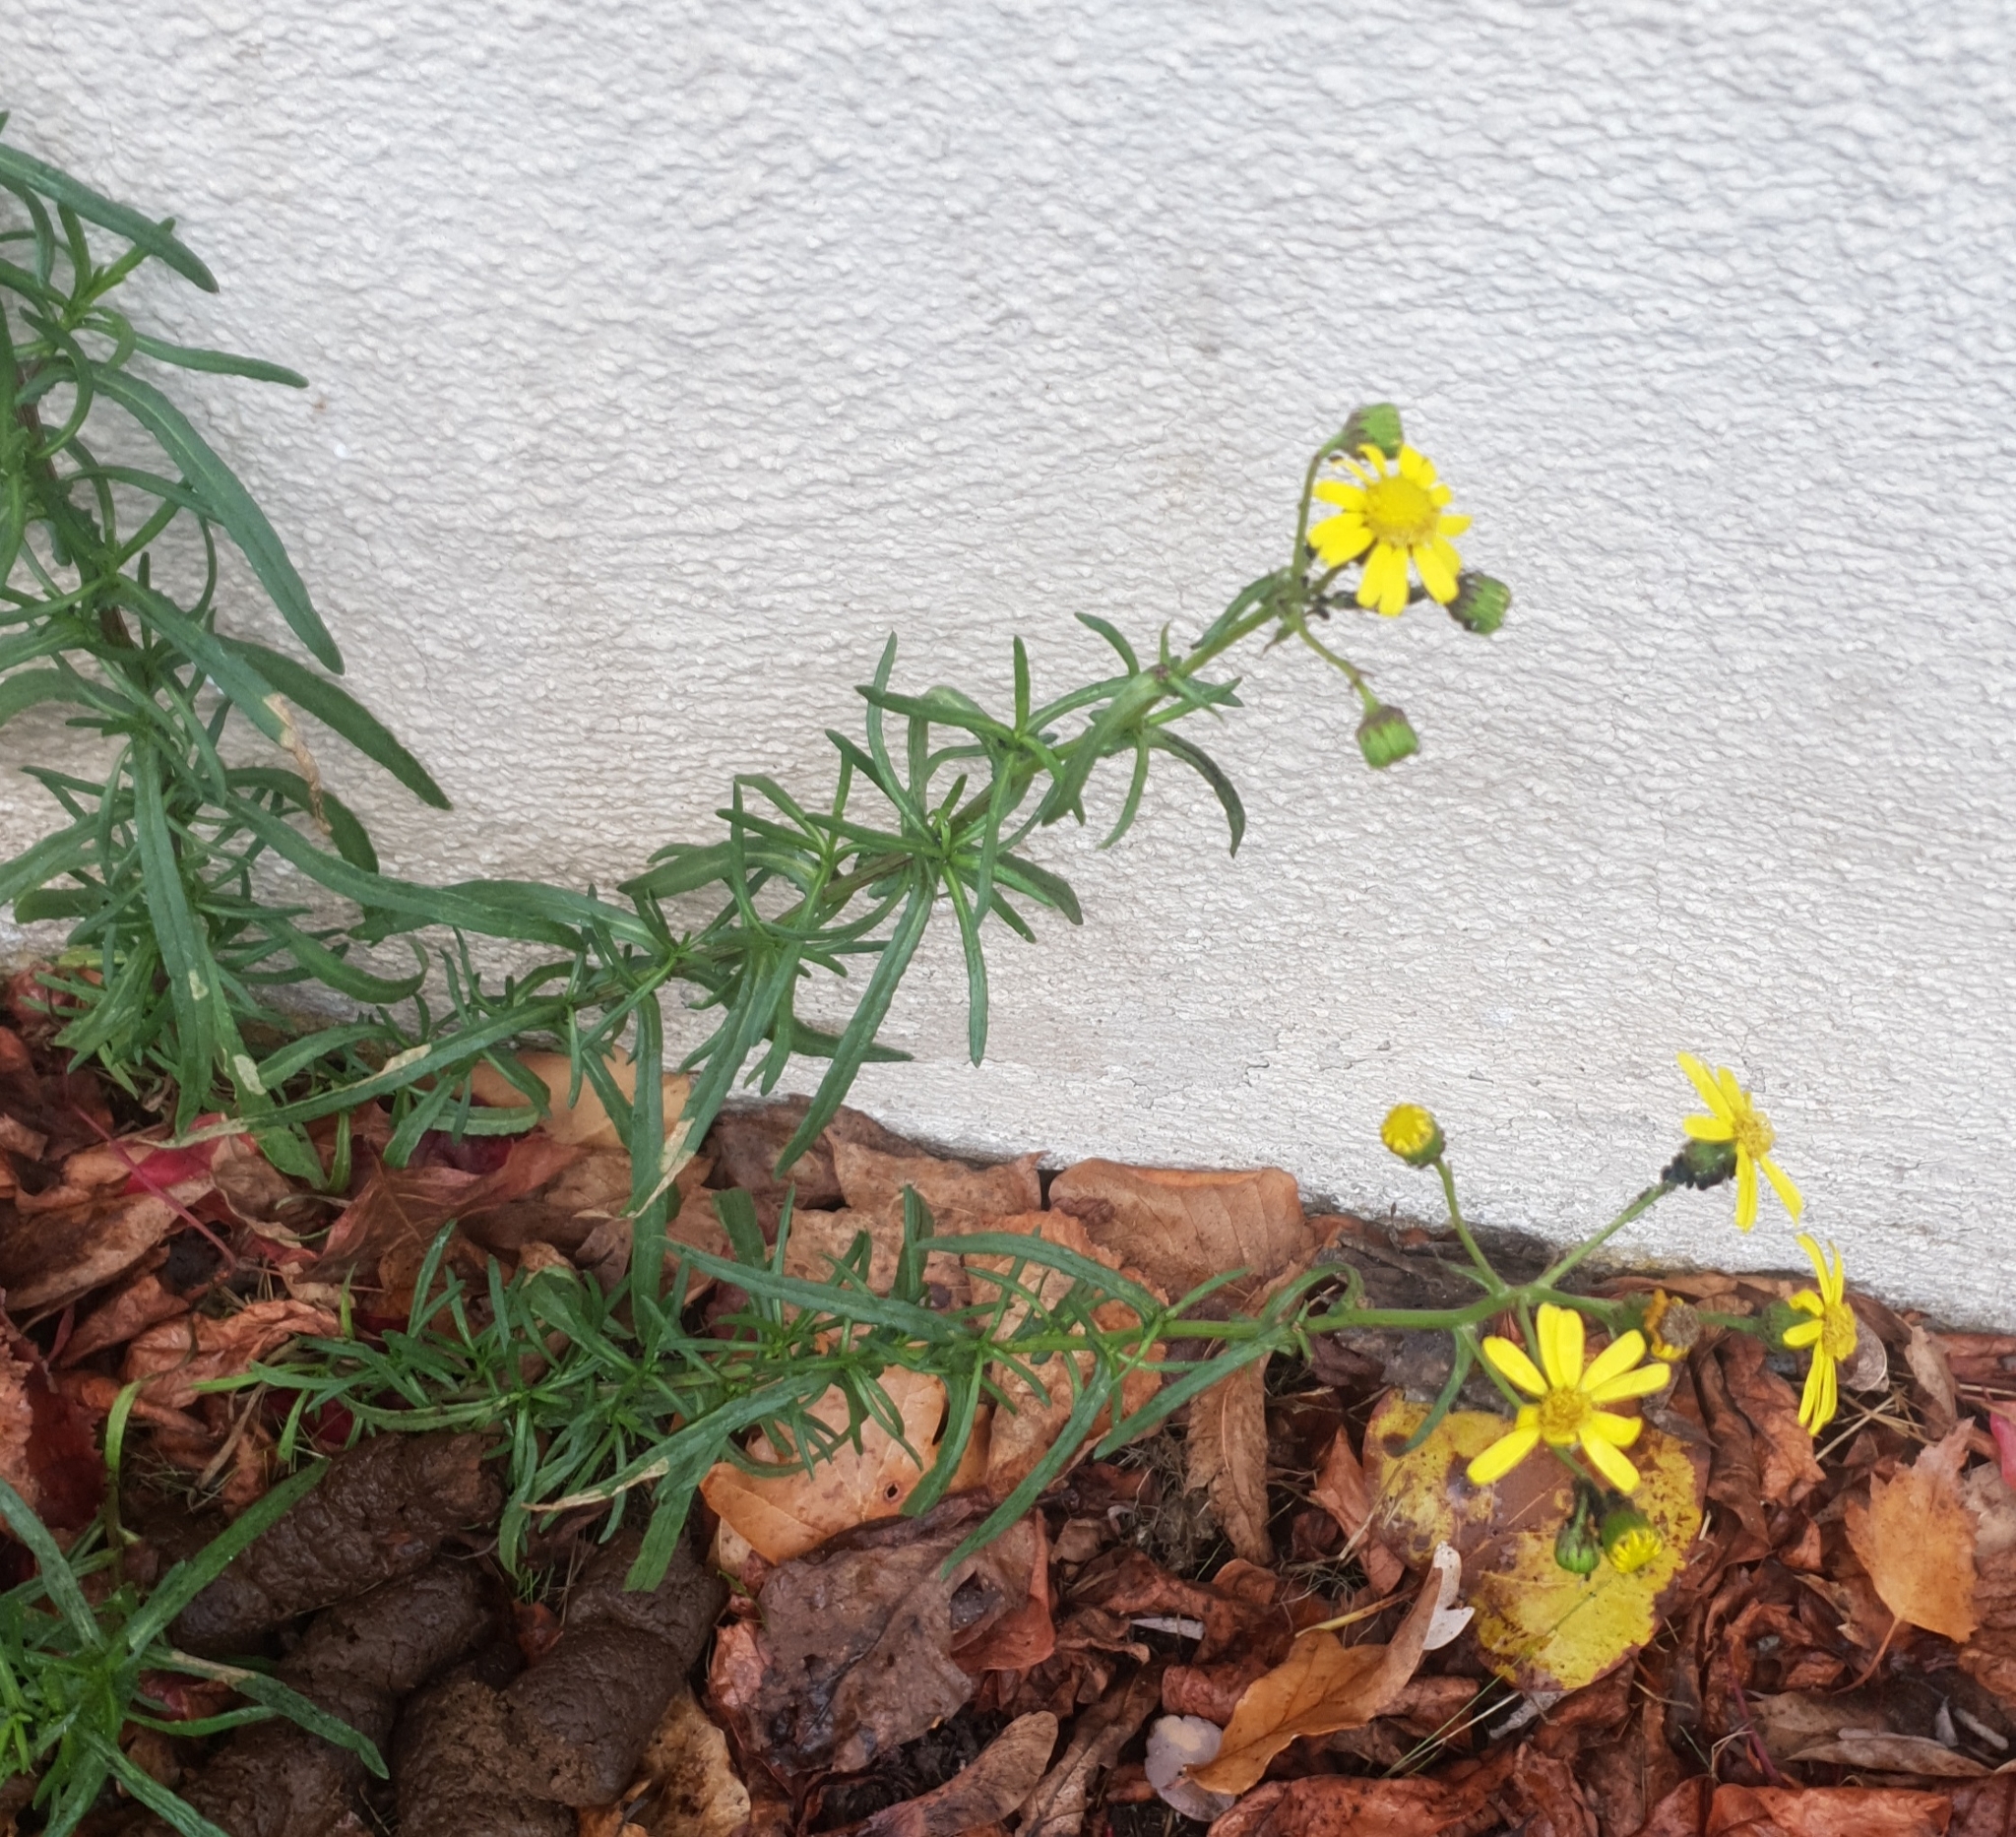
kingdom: Plantae
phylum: Tracheophyta
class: Magnoliopsida
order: Asterales
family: Asteraceae
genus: Senecio
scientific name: Senecio inaequidens
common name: Narrow-leaved ragwort
